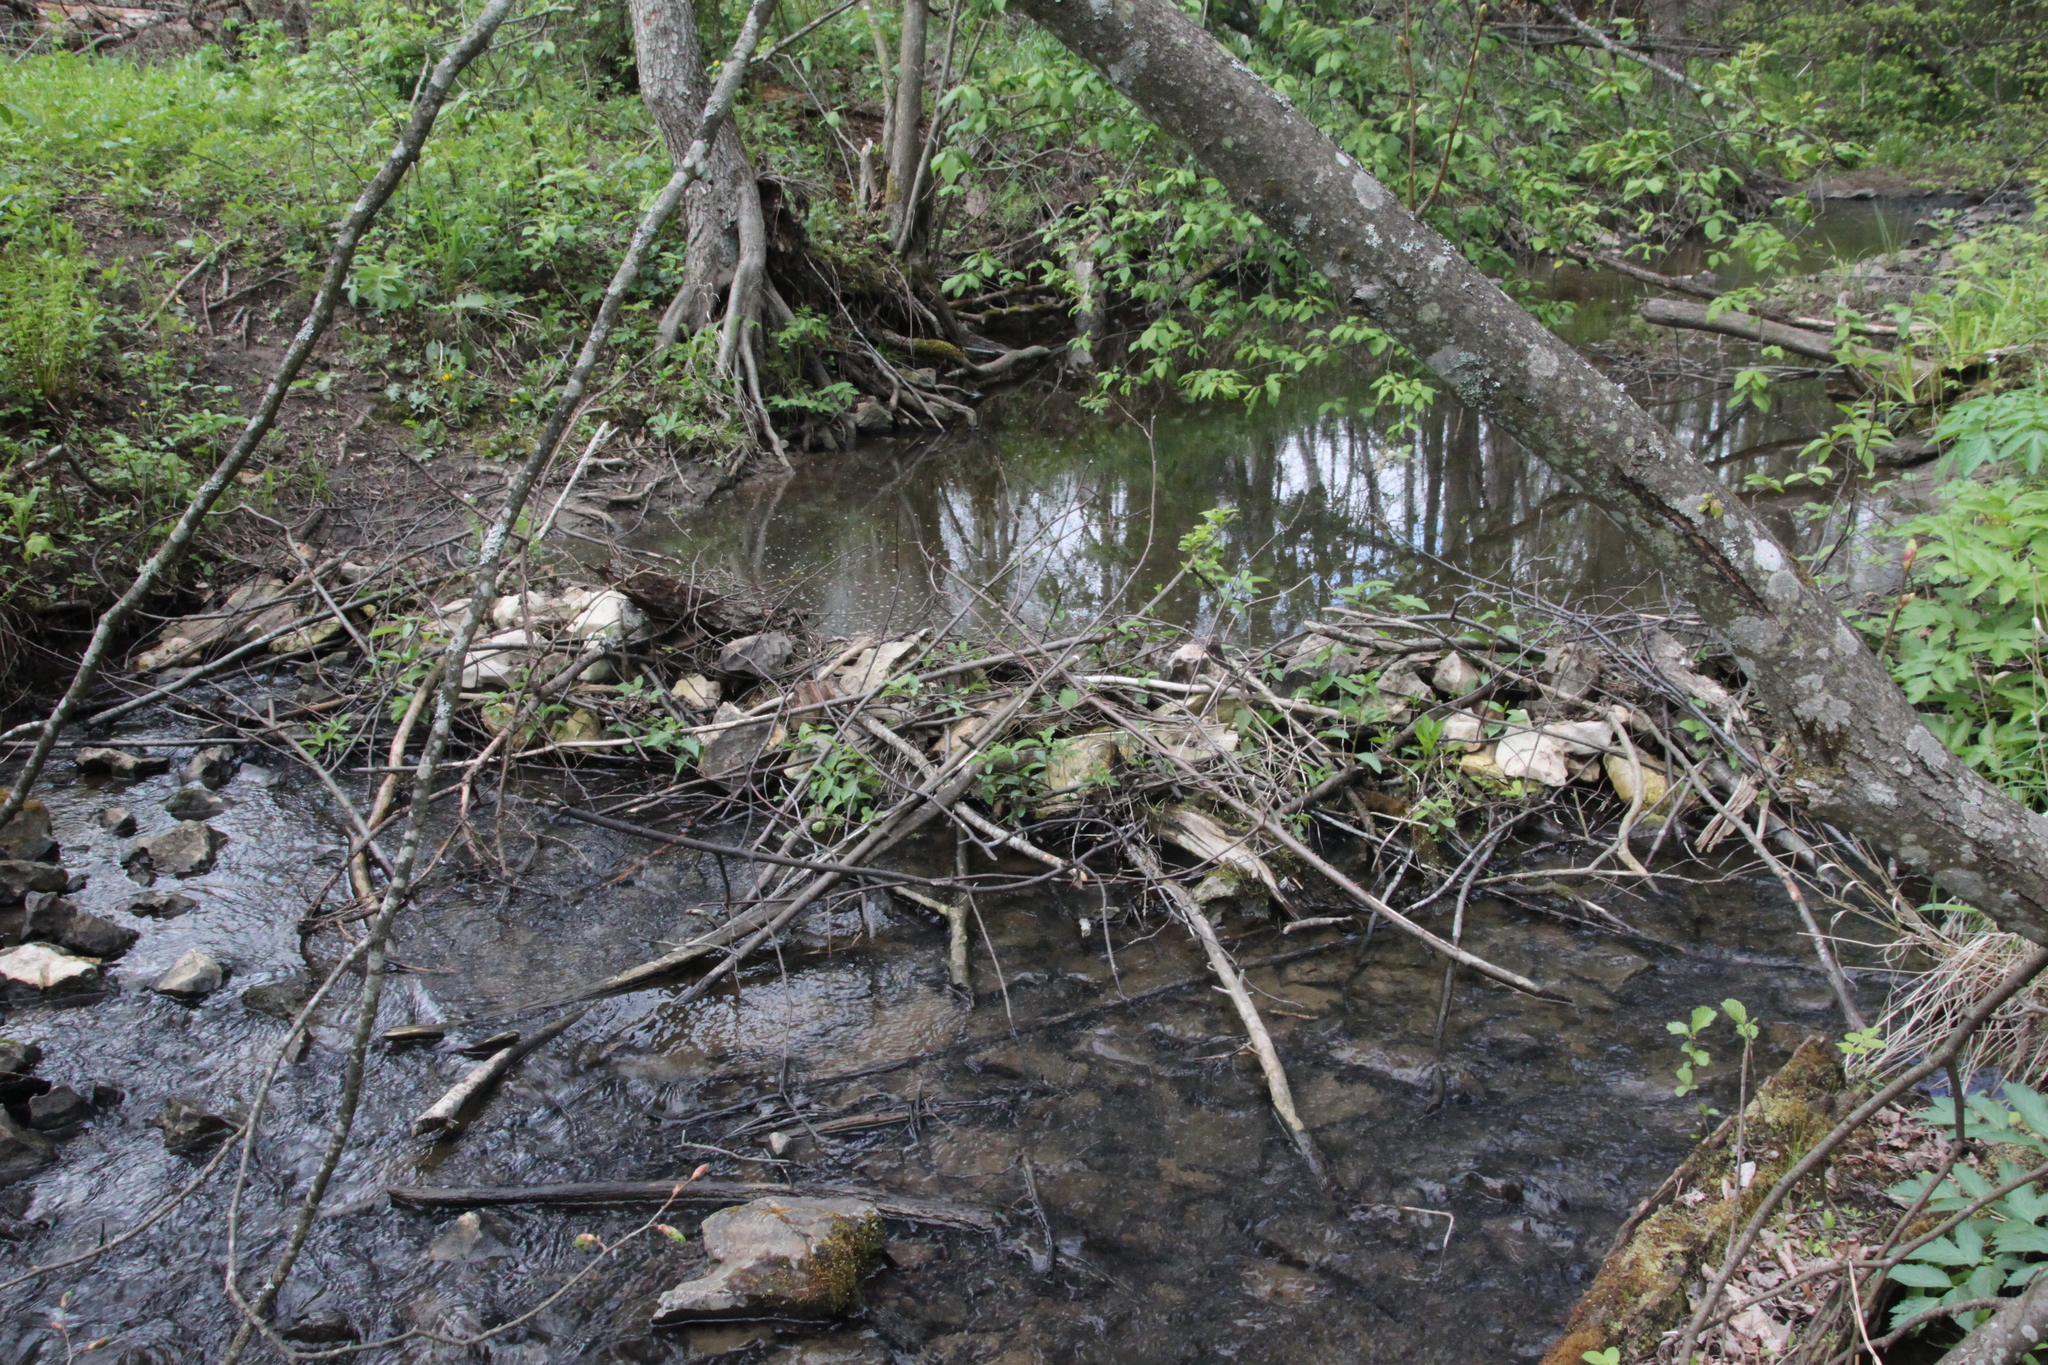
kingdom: Animalia
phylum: Chordata
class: Mammalia
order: Rodentia
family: Castoridae
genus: Castor
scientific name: Castor fiber
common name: Eurasian beaver
